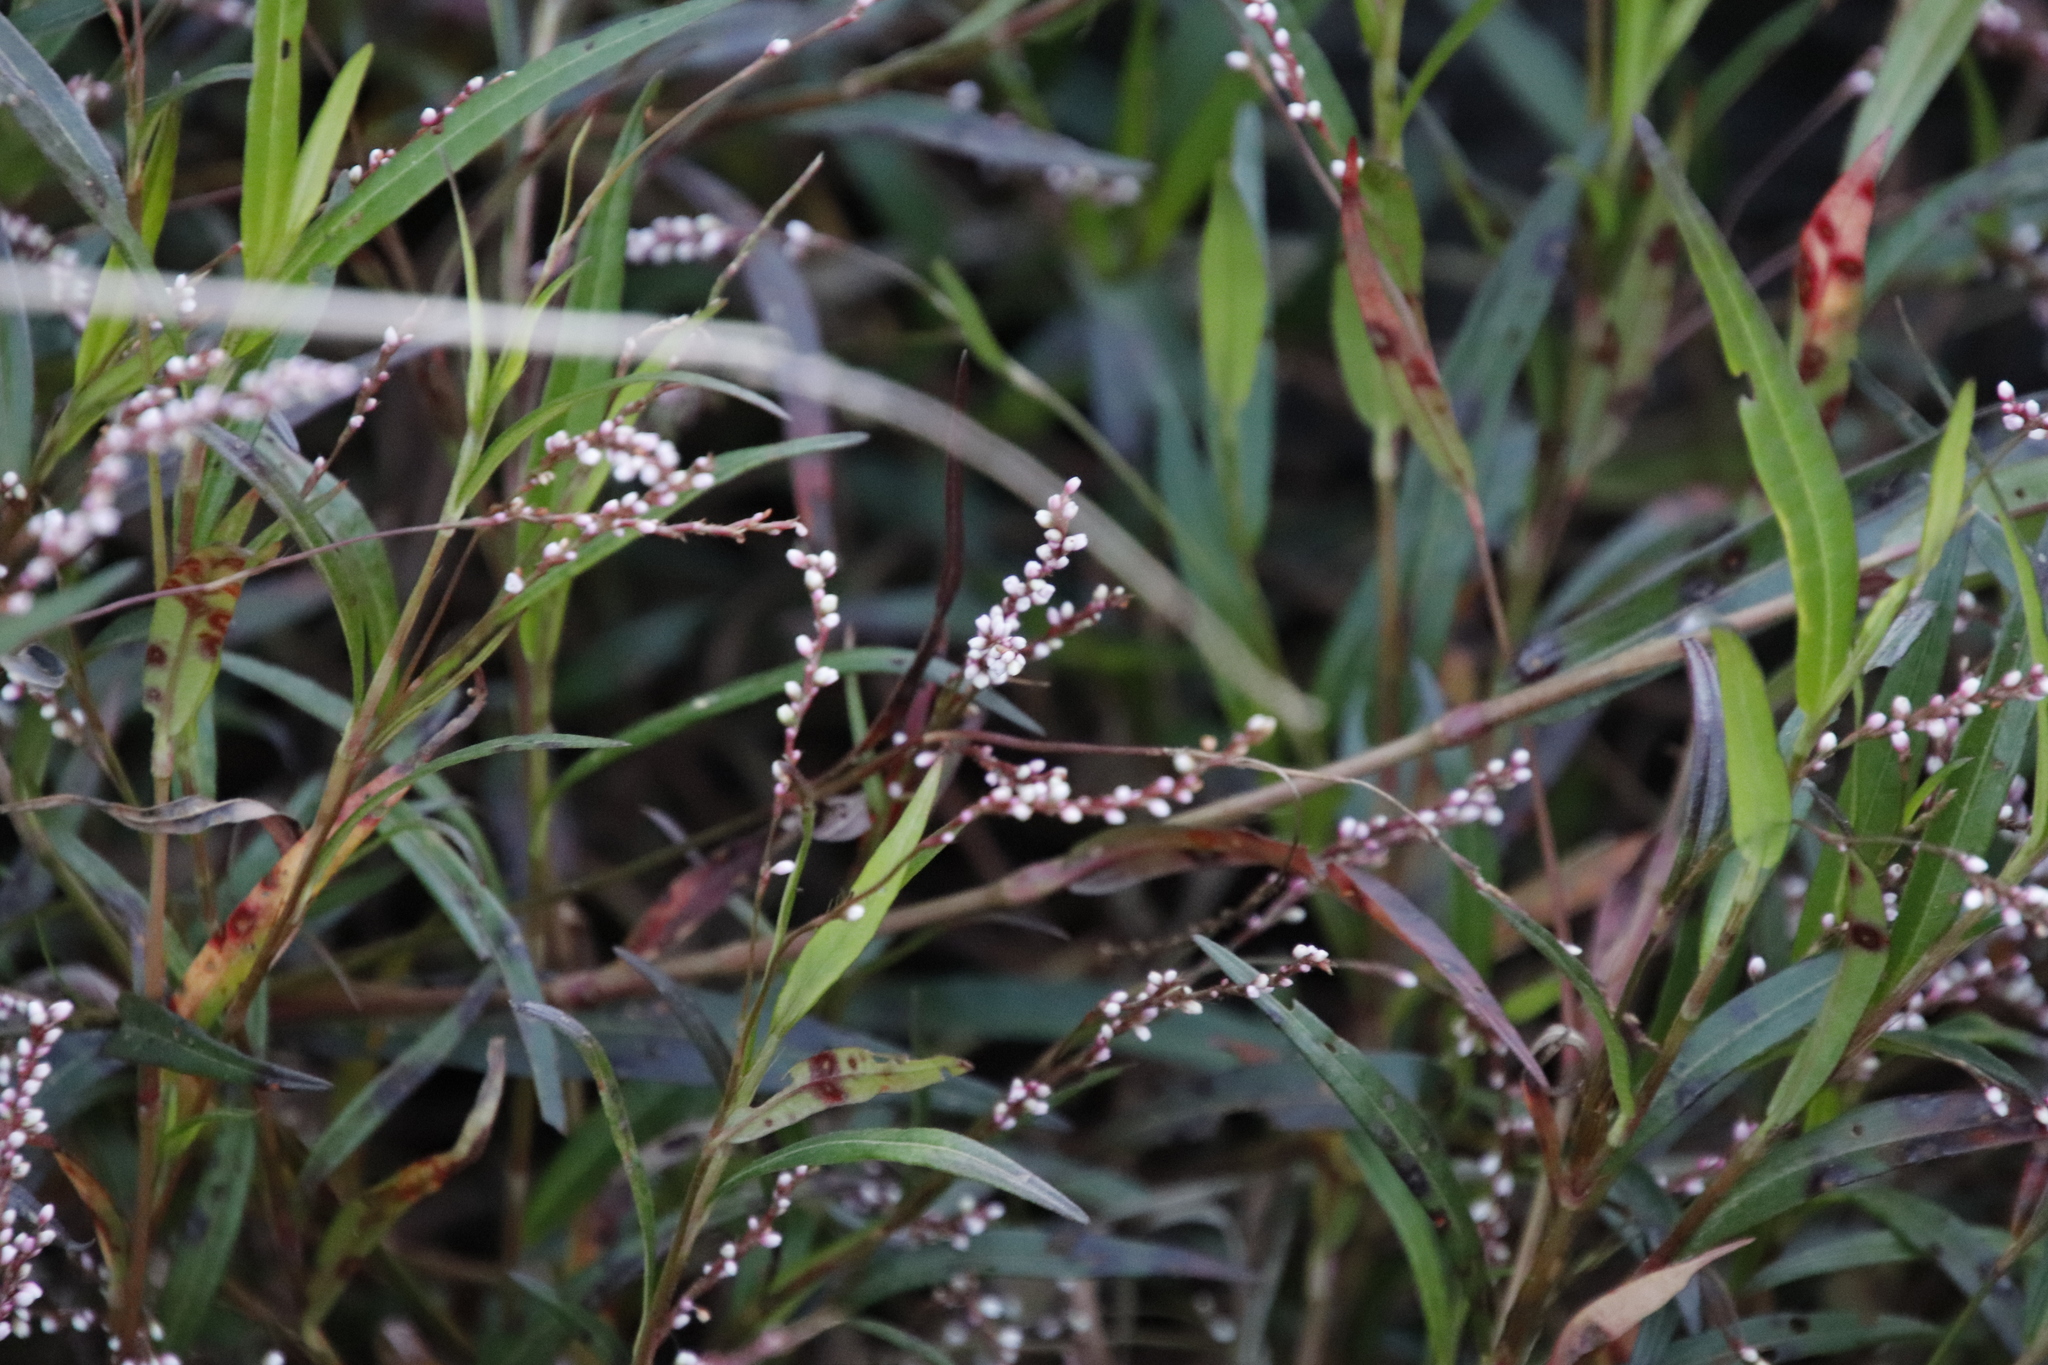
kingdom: Plantae
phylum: Tracheophyta
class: Magnoliopsida
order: Caryophyllales
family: Polygonaceae
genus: Persicaria
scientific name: Persicaria decipiens
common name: Willow-weed
